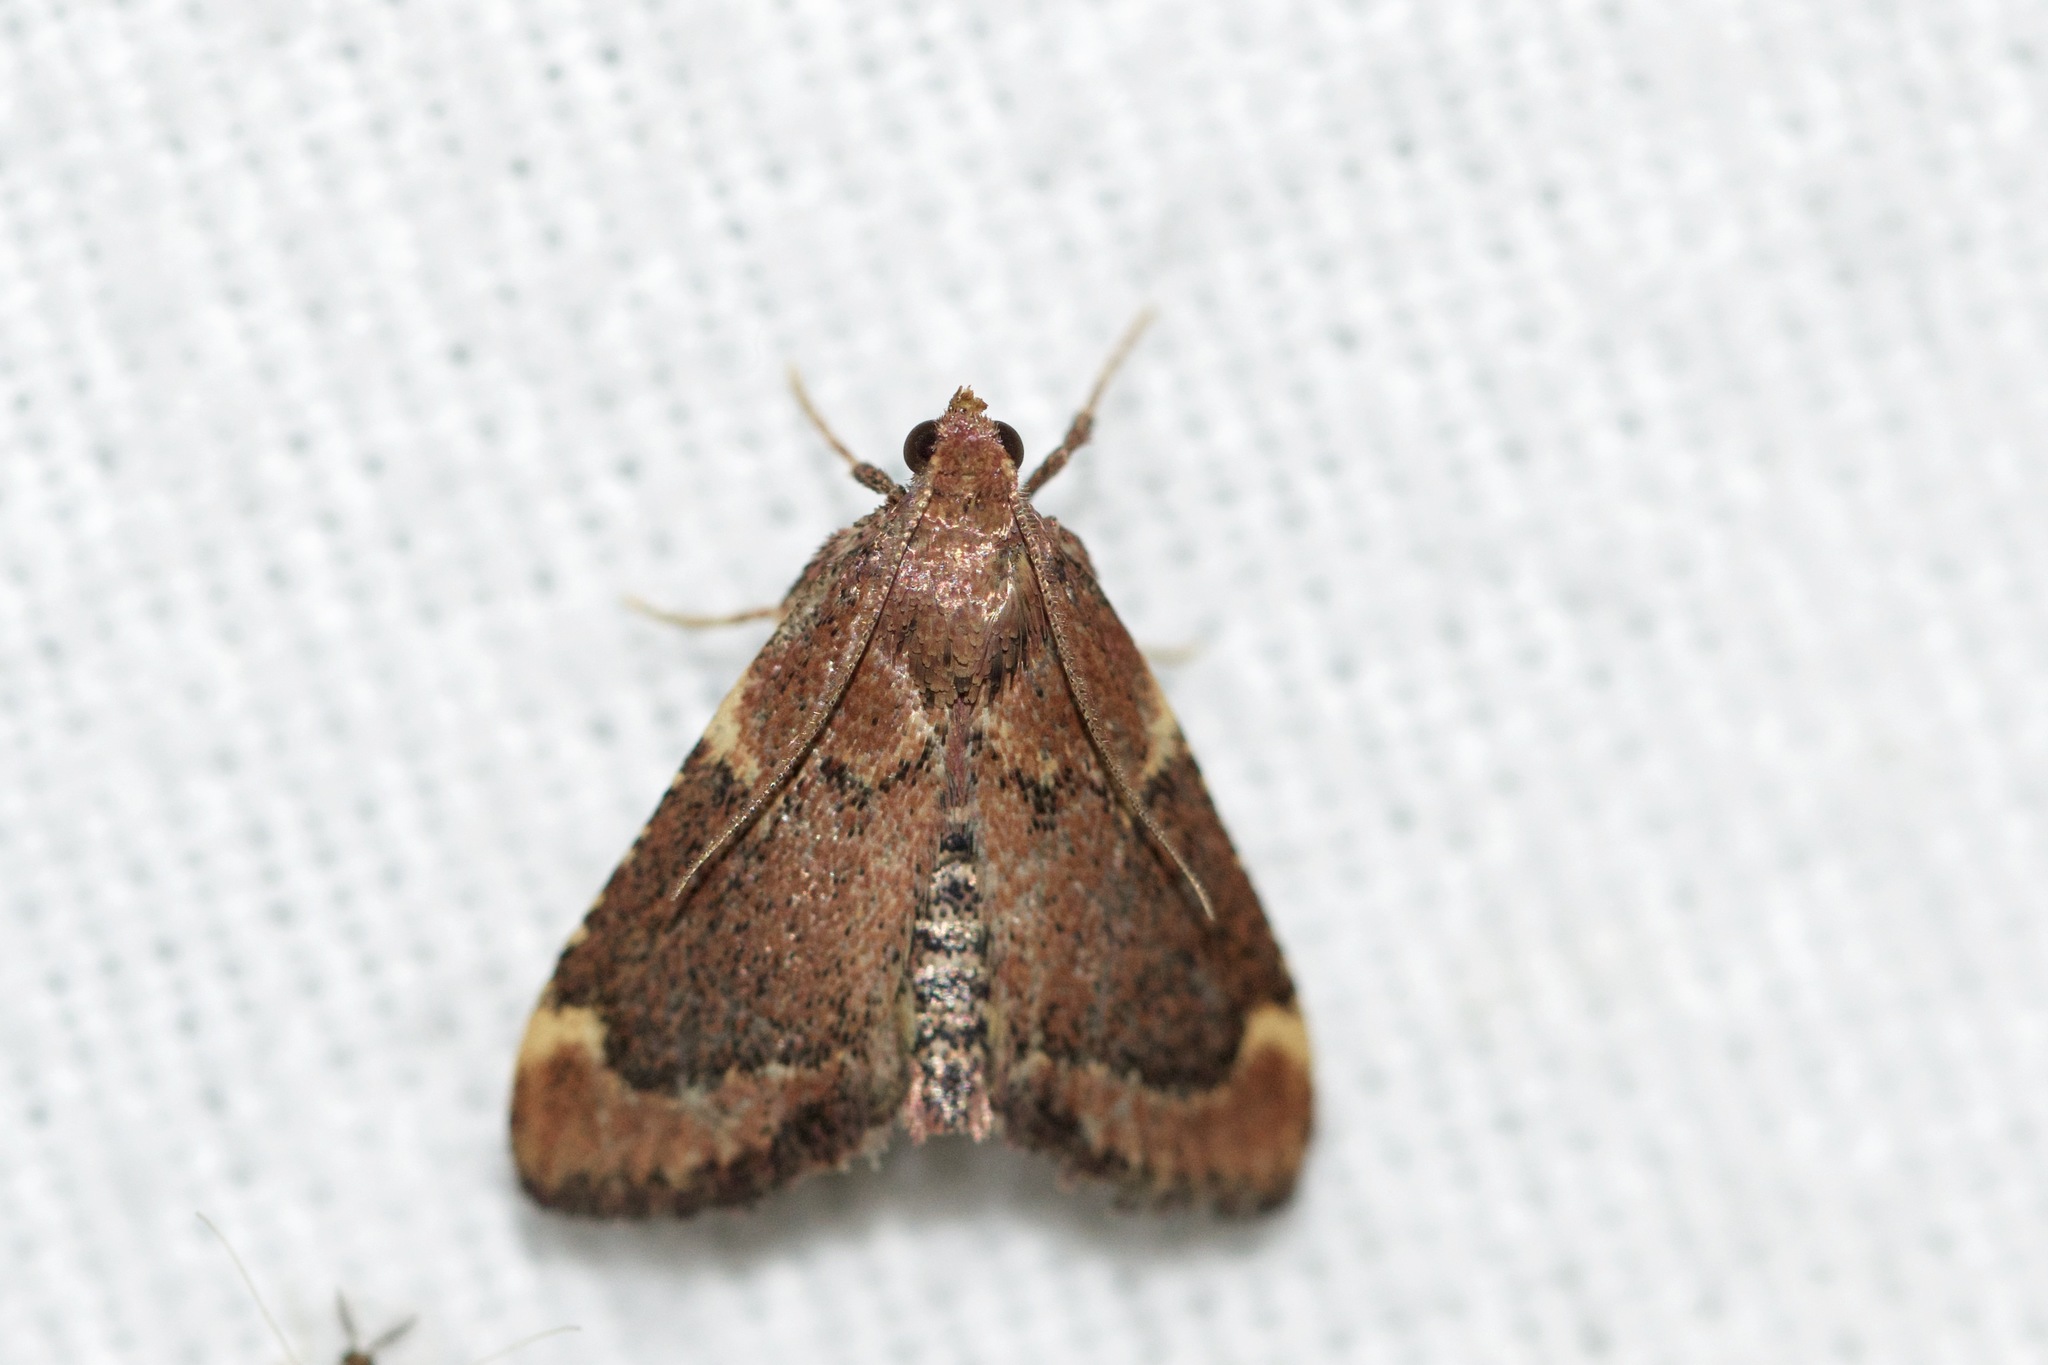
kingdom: Animalia
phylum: Arthropoda
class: Insecta
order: Lepidoptera
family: Pyralidae
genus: Hypsopygia
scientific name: Hypsopygia intermedialis
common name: Red-shawled moth
